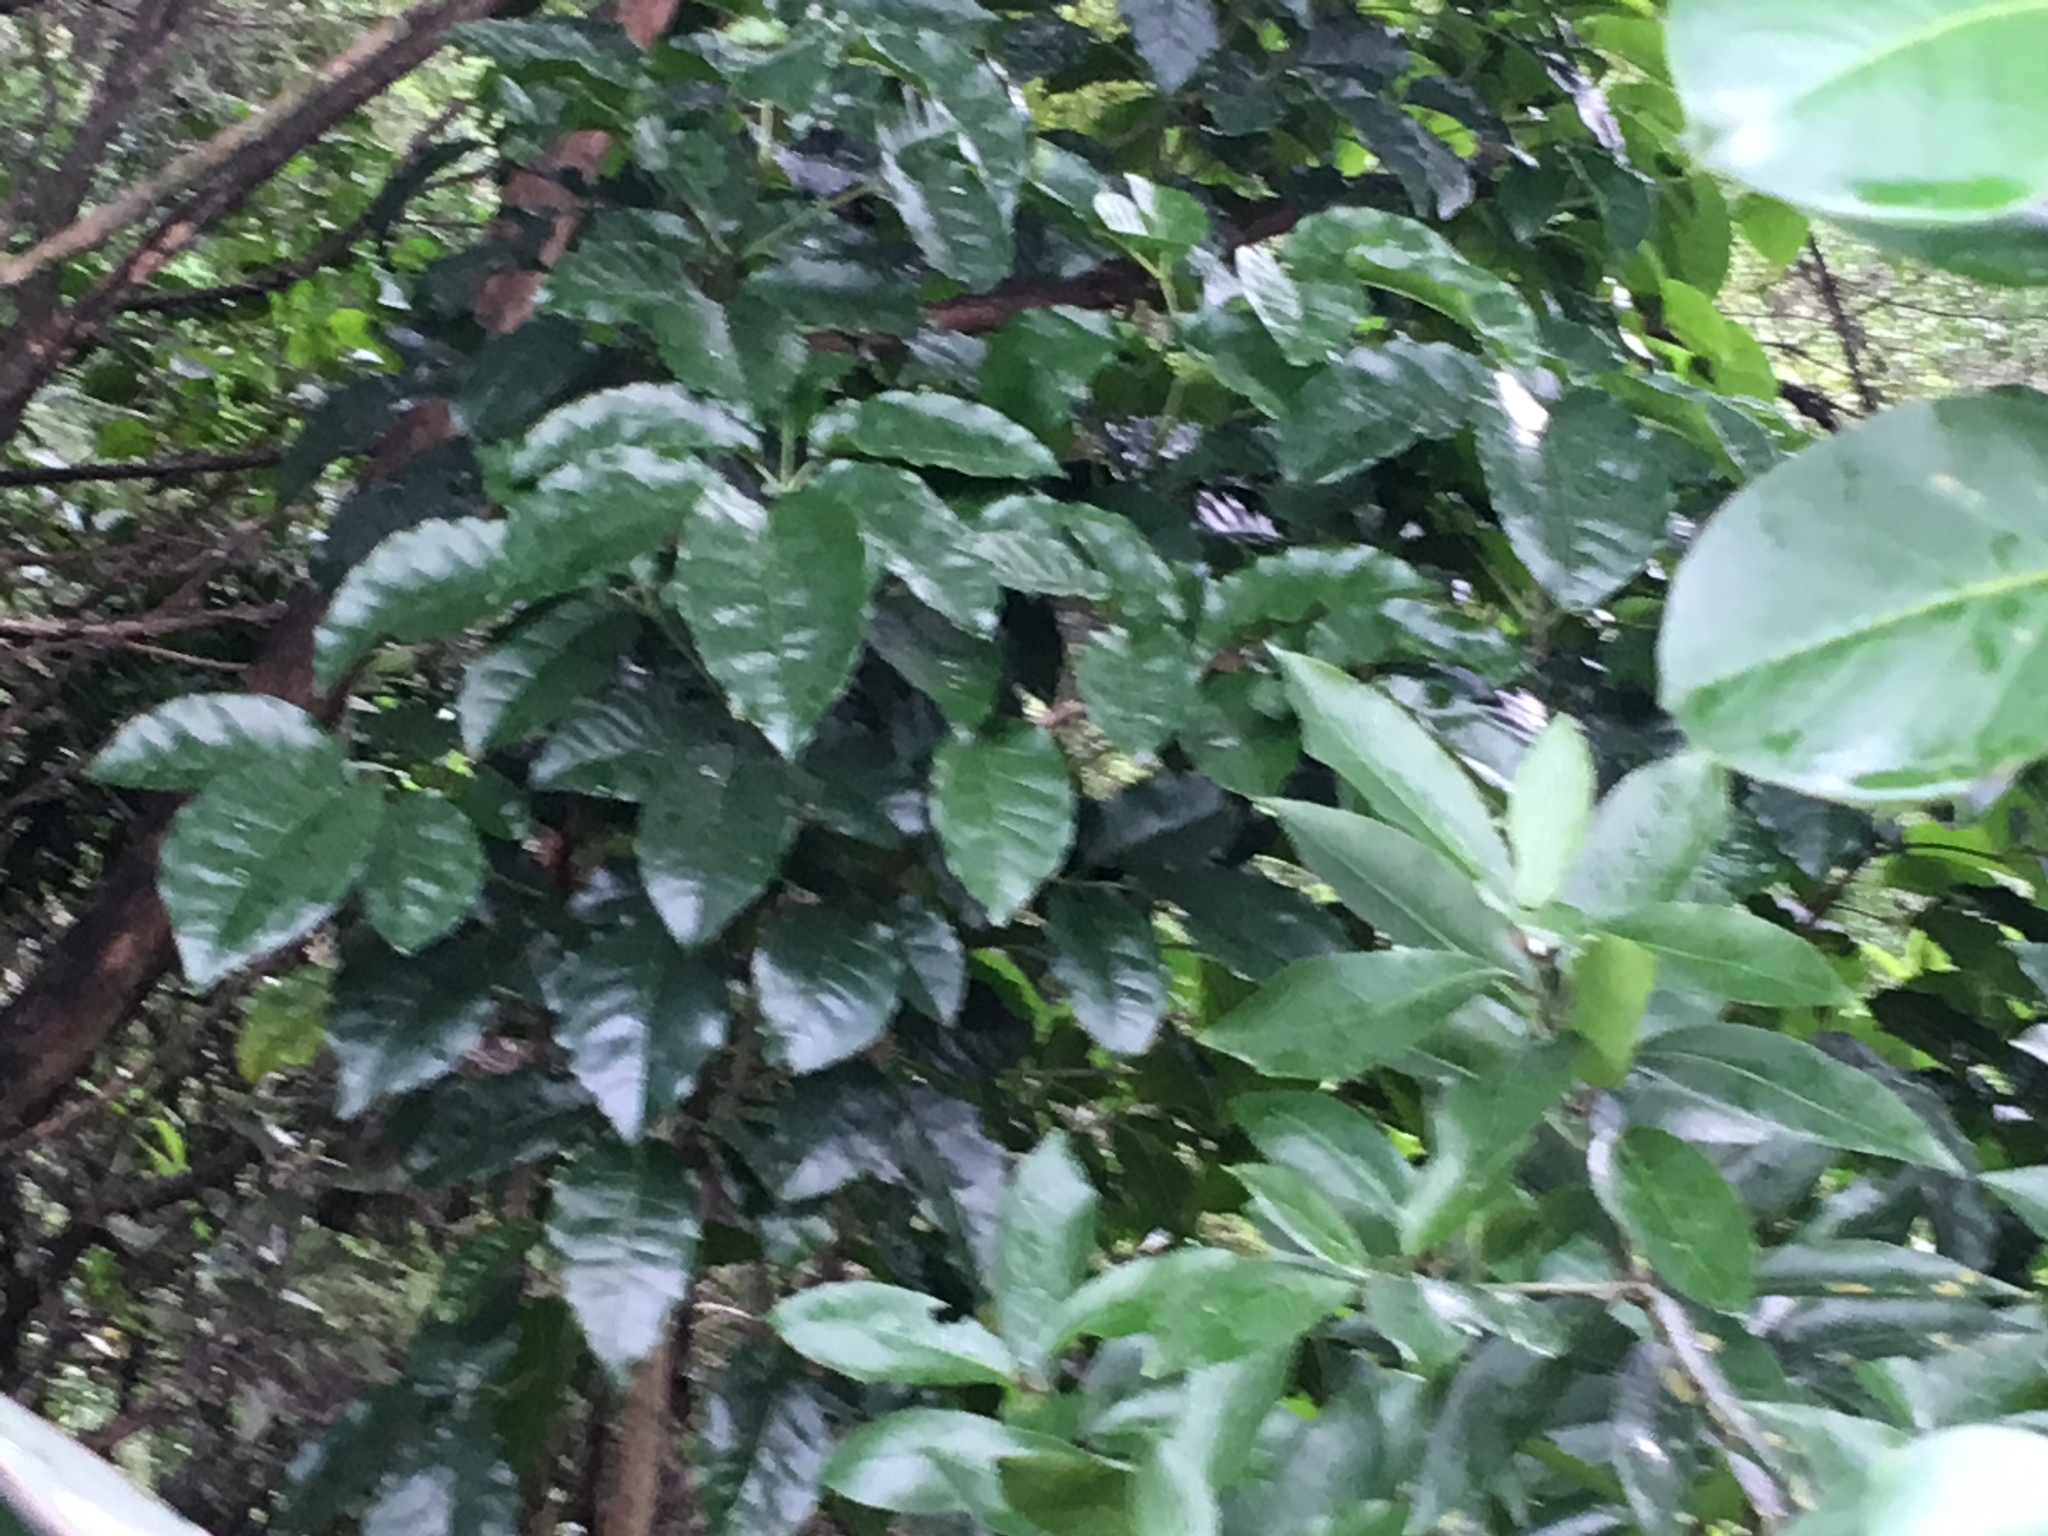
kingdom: Plantae
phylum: Tracheophyta
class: Magnoliopsida
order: Lamiales
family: Lamiaceae
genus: Vitex
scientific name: Vitex lucens
